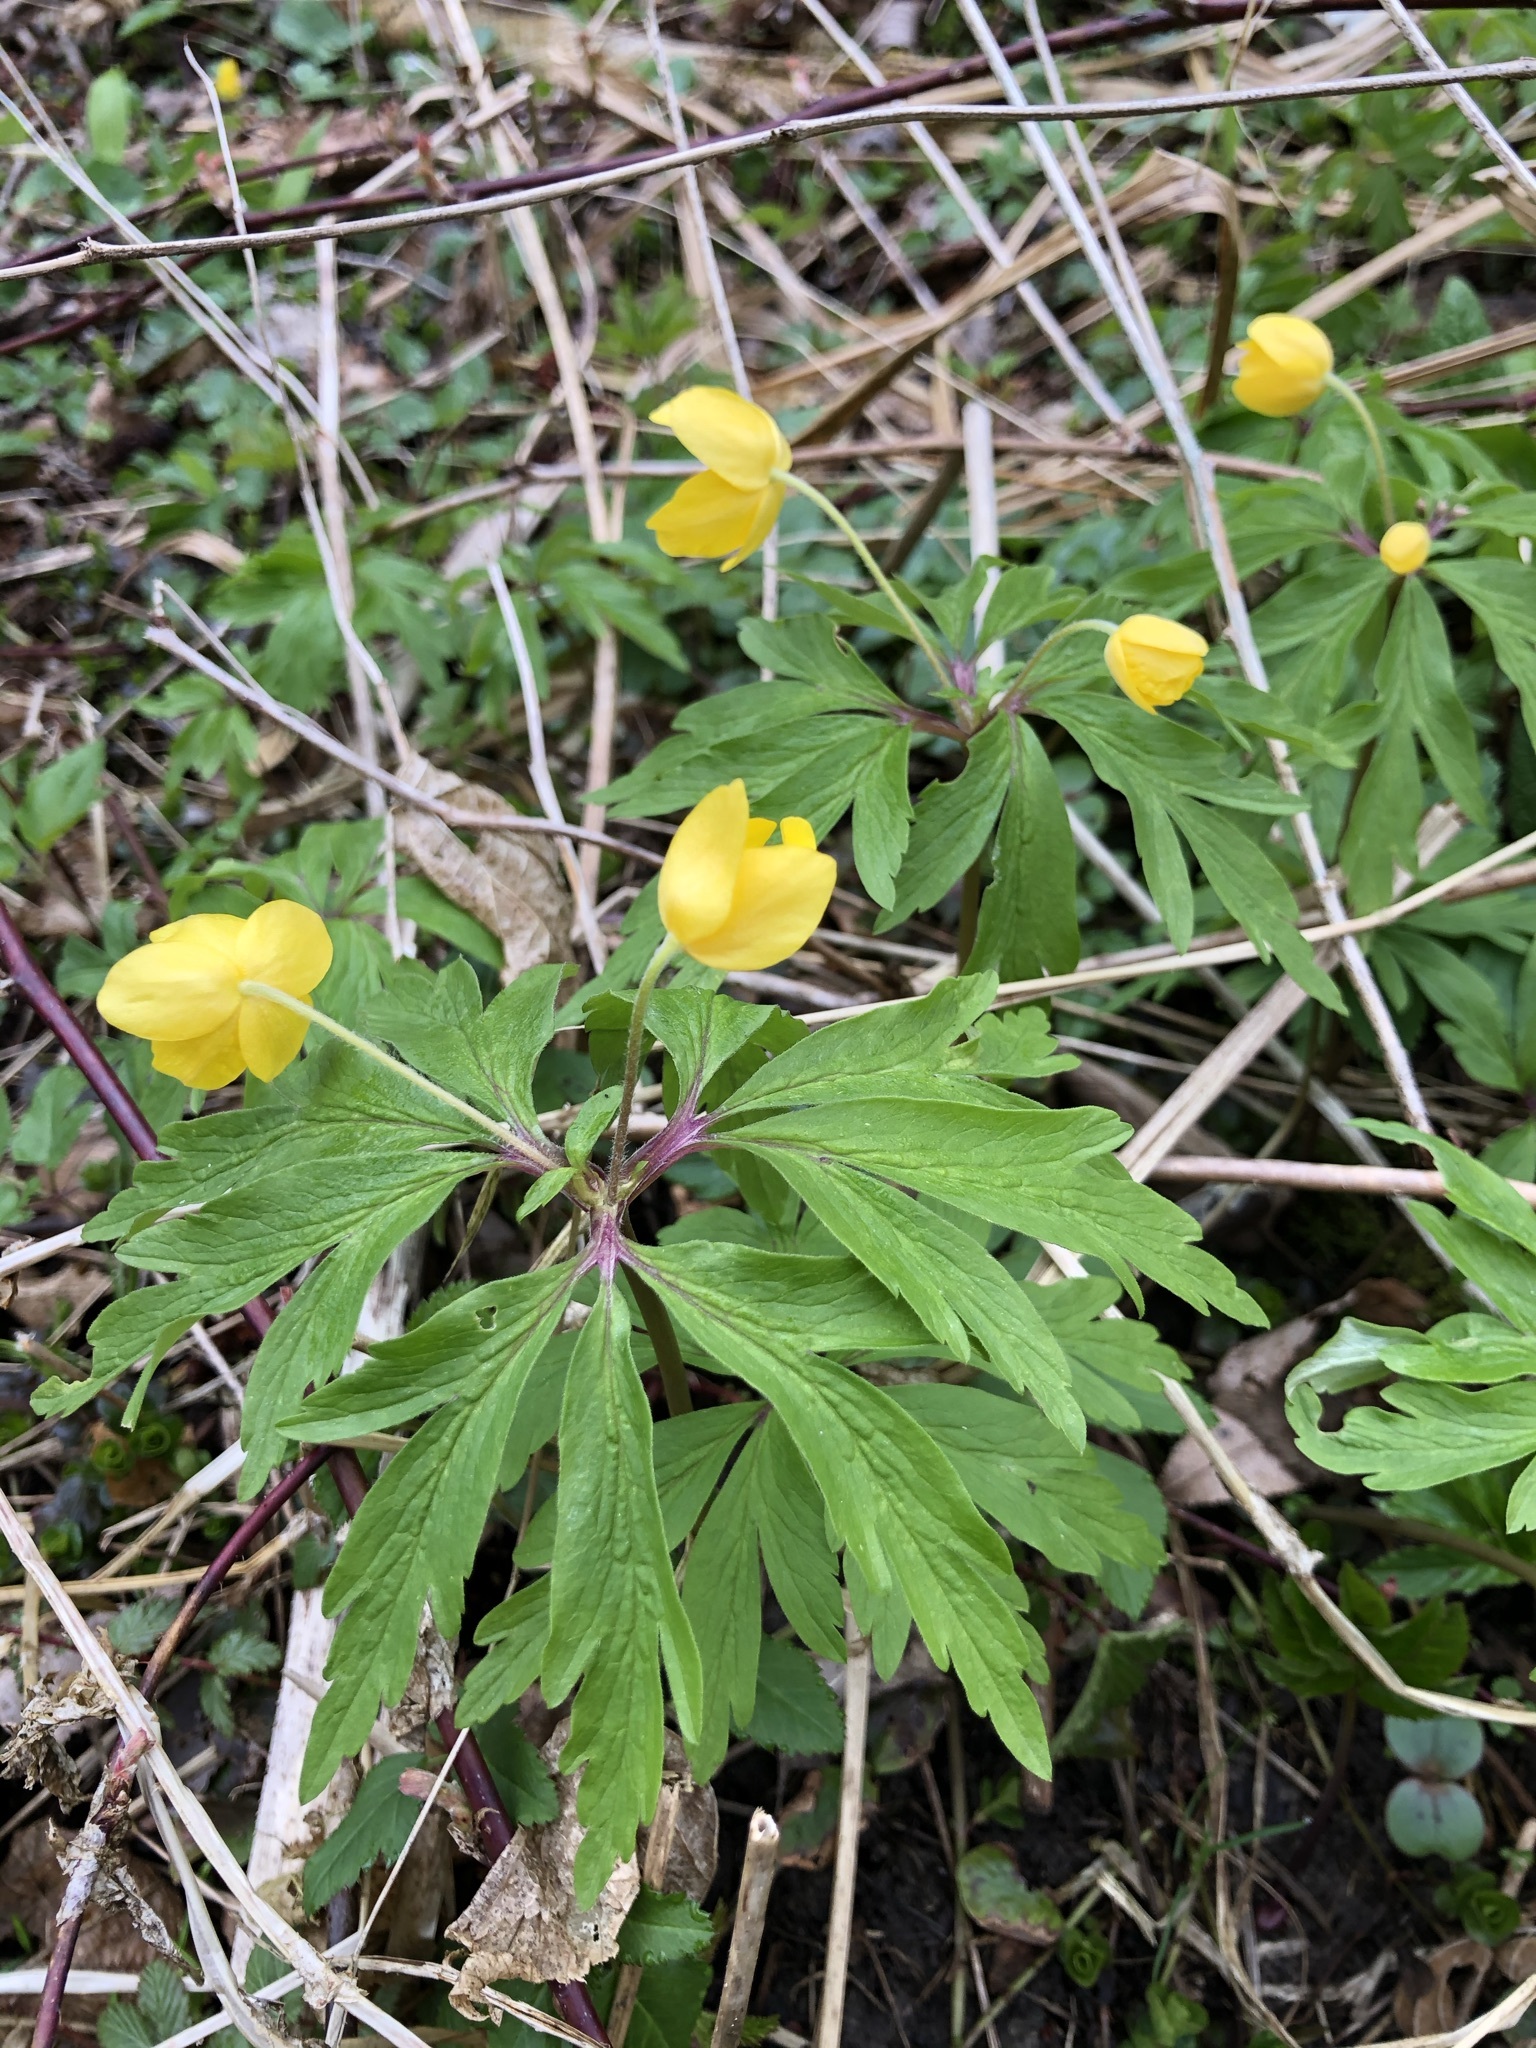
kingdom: Plantae
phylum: Tracheophyta
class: Magnoliopsida
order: Ranunculales
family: Ranunculaceae
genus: Anemone
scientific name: Anemone ranunculoides
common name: Yellow anemone
